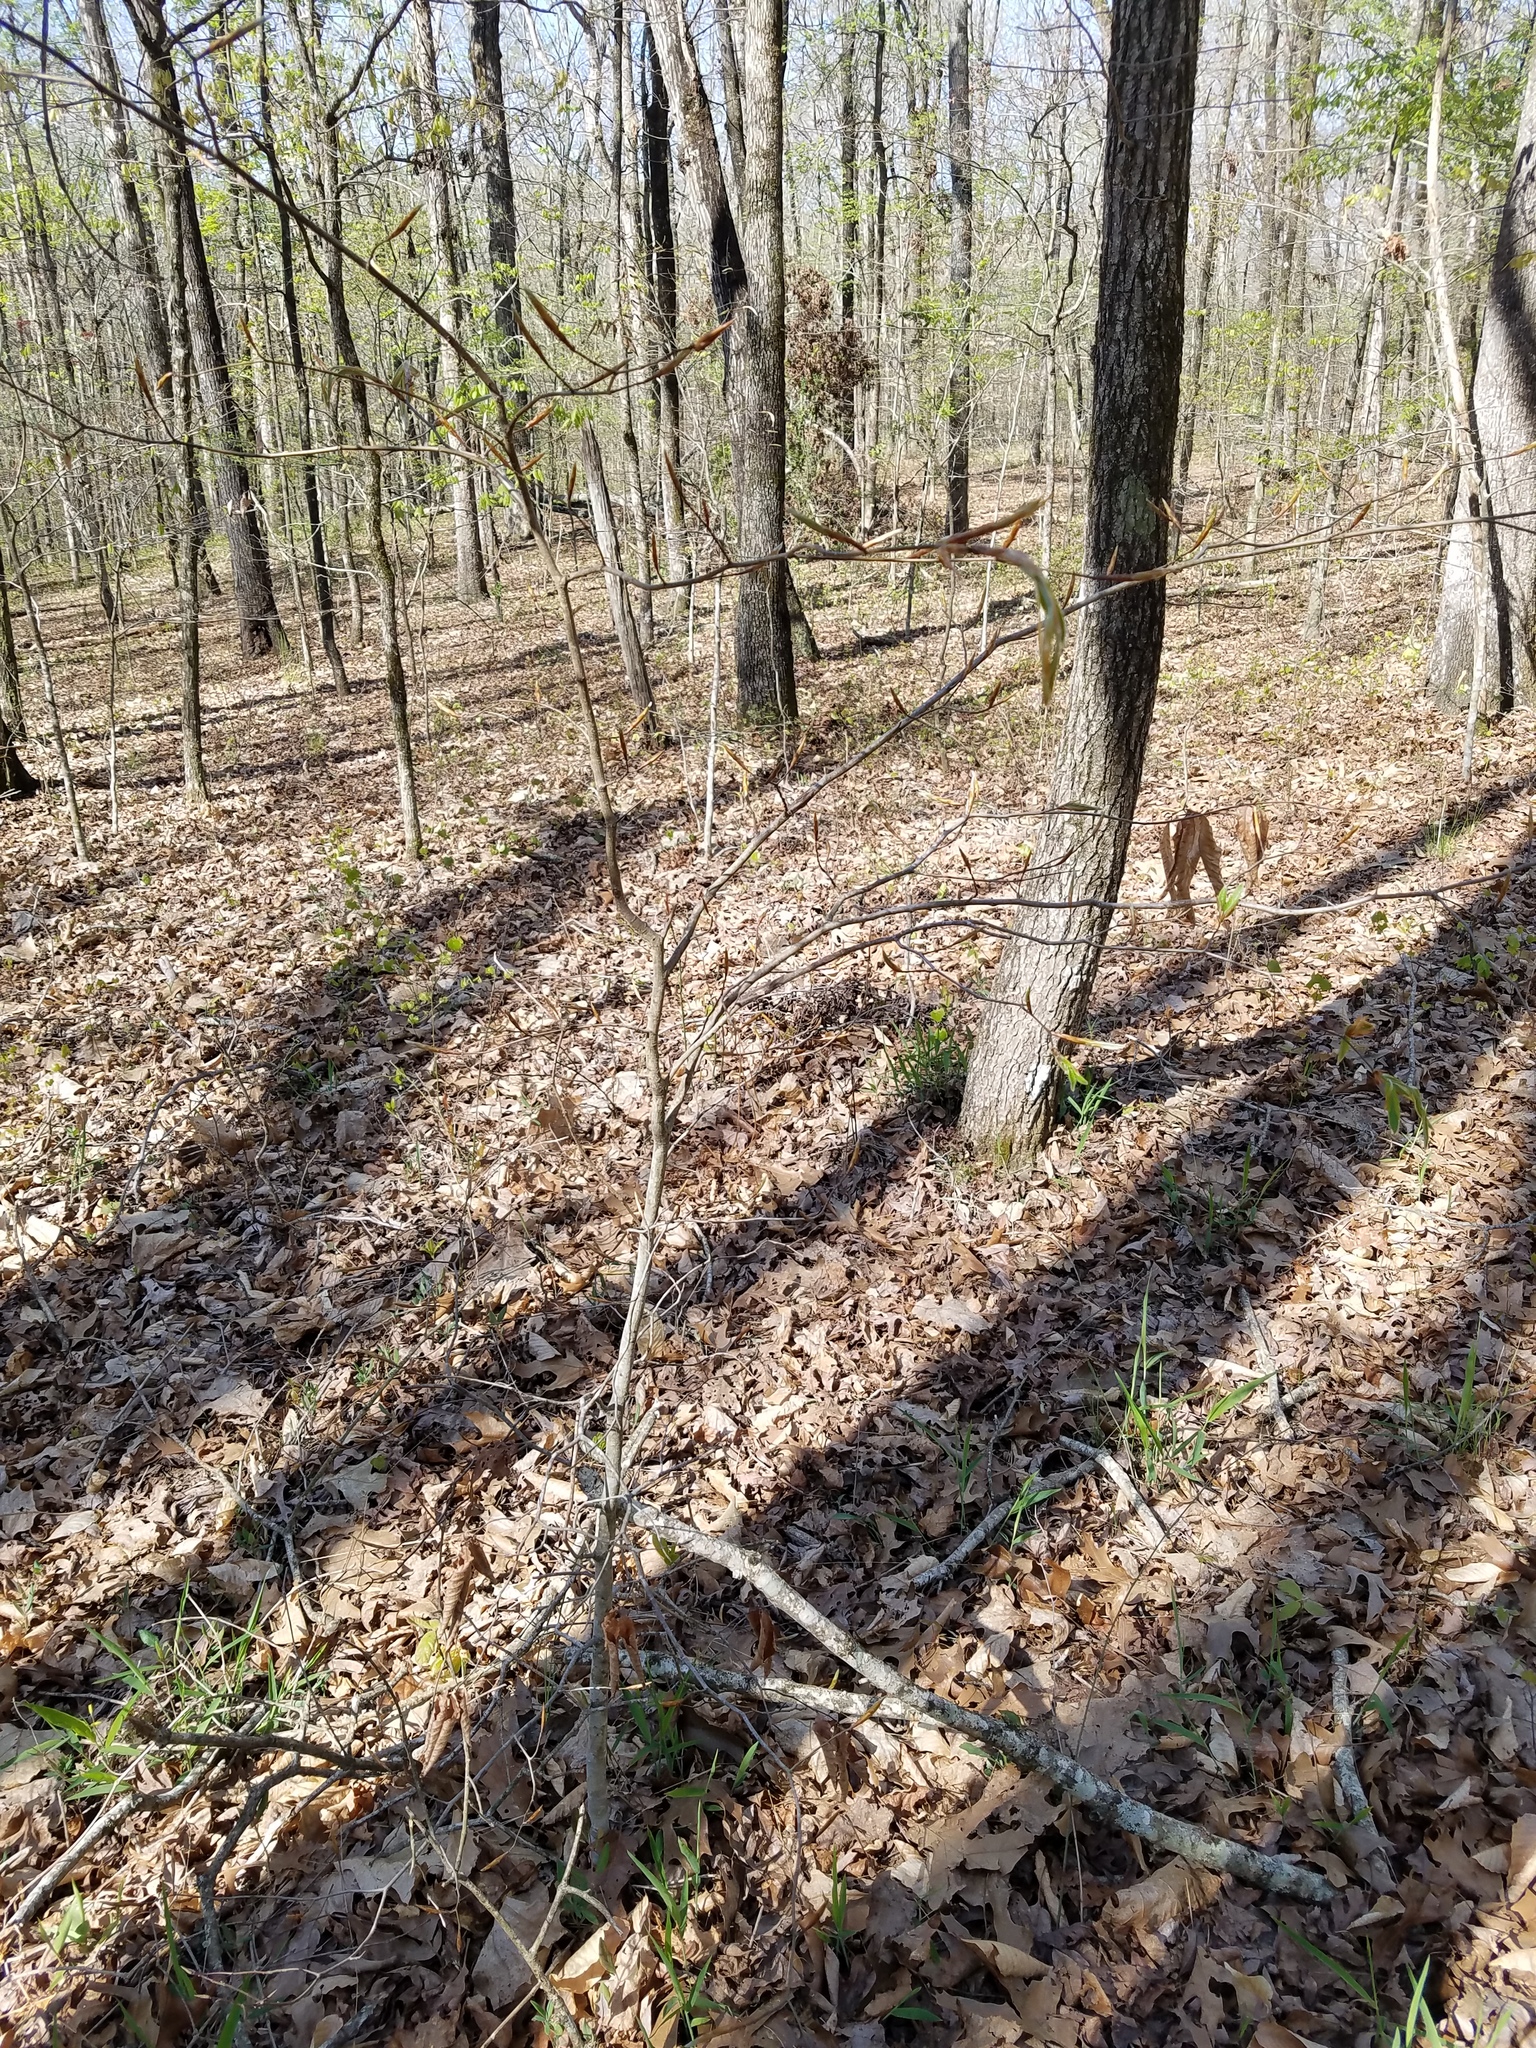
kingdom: Plantae
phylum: Tracheophyta
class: Magnoliopsida
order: Fagales
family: Fagaceae
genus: Fagus
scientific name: Fagus grandifolia
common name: American beech
